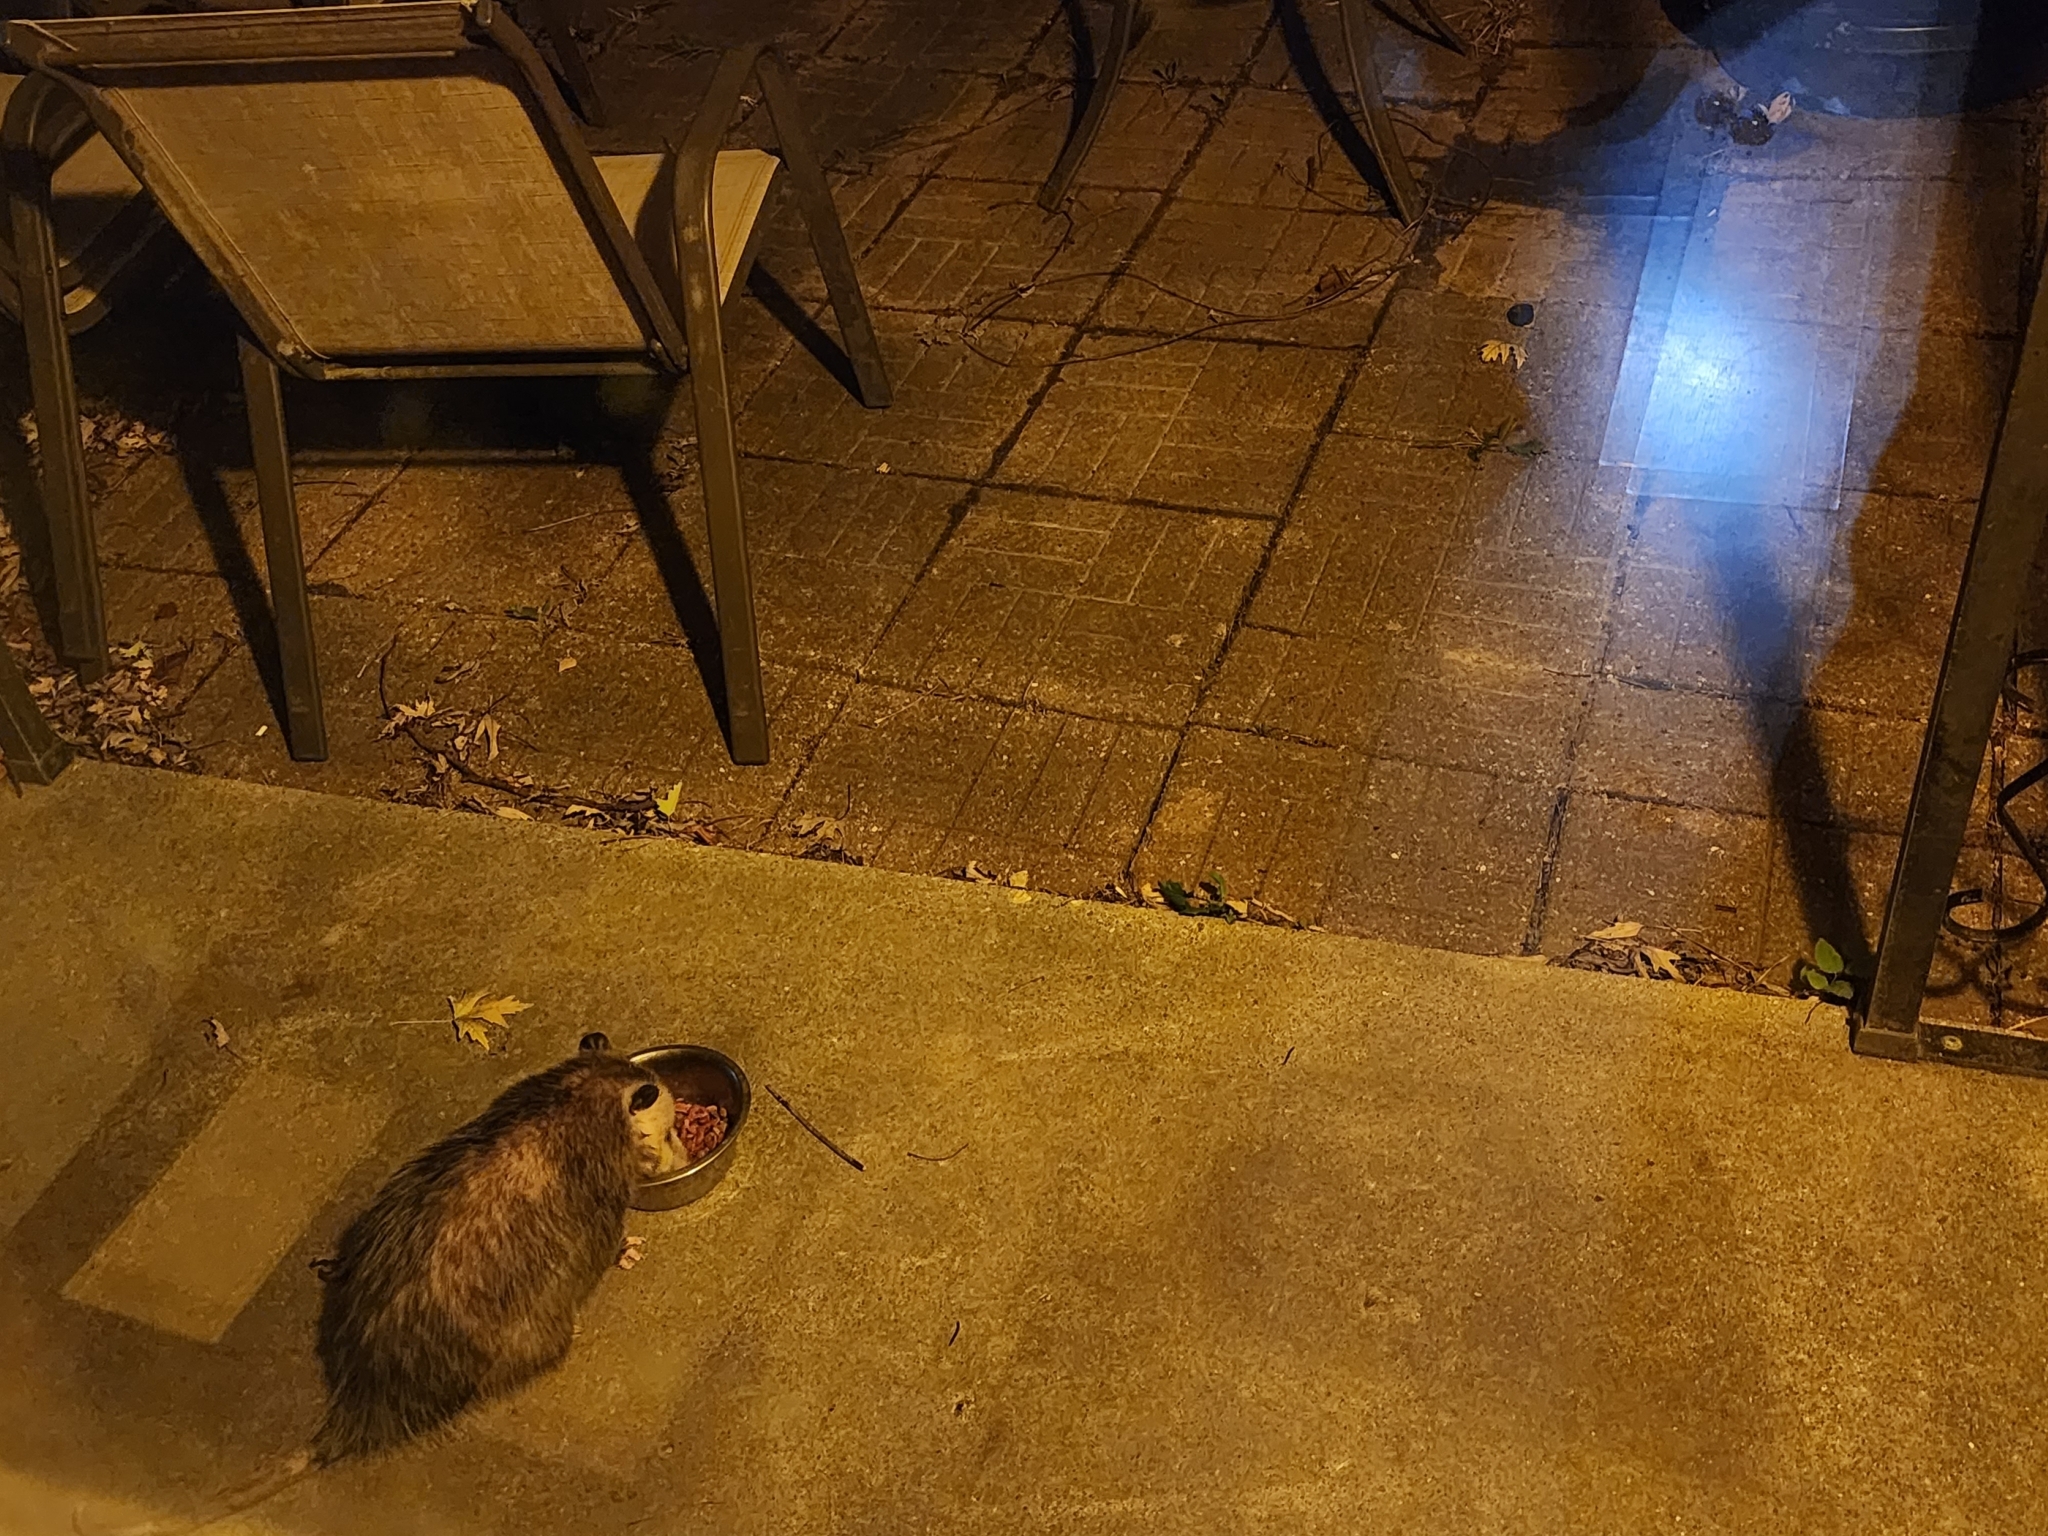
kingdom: Animalia
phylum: Chordata
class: Mammalia
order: Didelphimorphia
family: Didelphidae
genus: Didelphis
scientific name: Didelphis virginiana
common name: Virginia opossum
